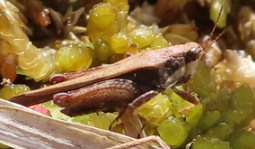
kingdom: Animalia
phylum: Arthropoda
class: Insecta
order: Orthoptera
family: Tetrigidae
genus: Tettigidea
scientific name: Tettigidea laterale
